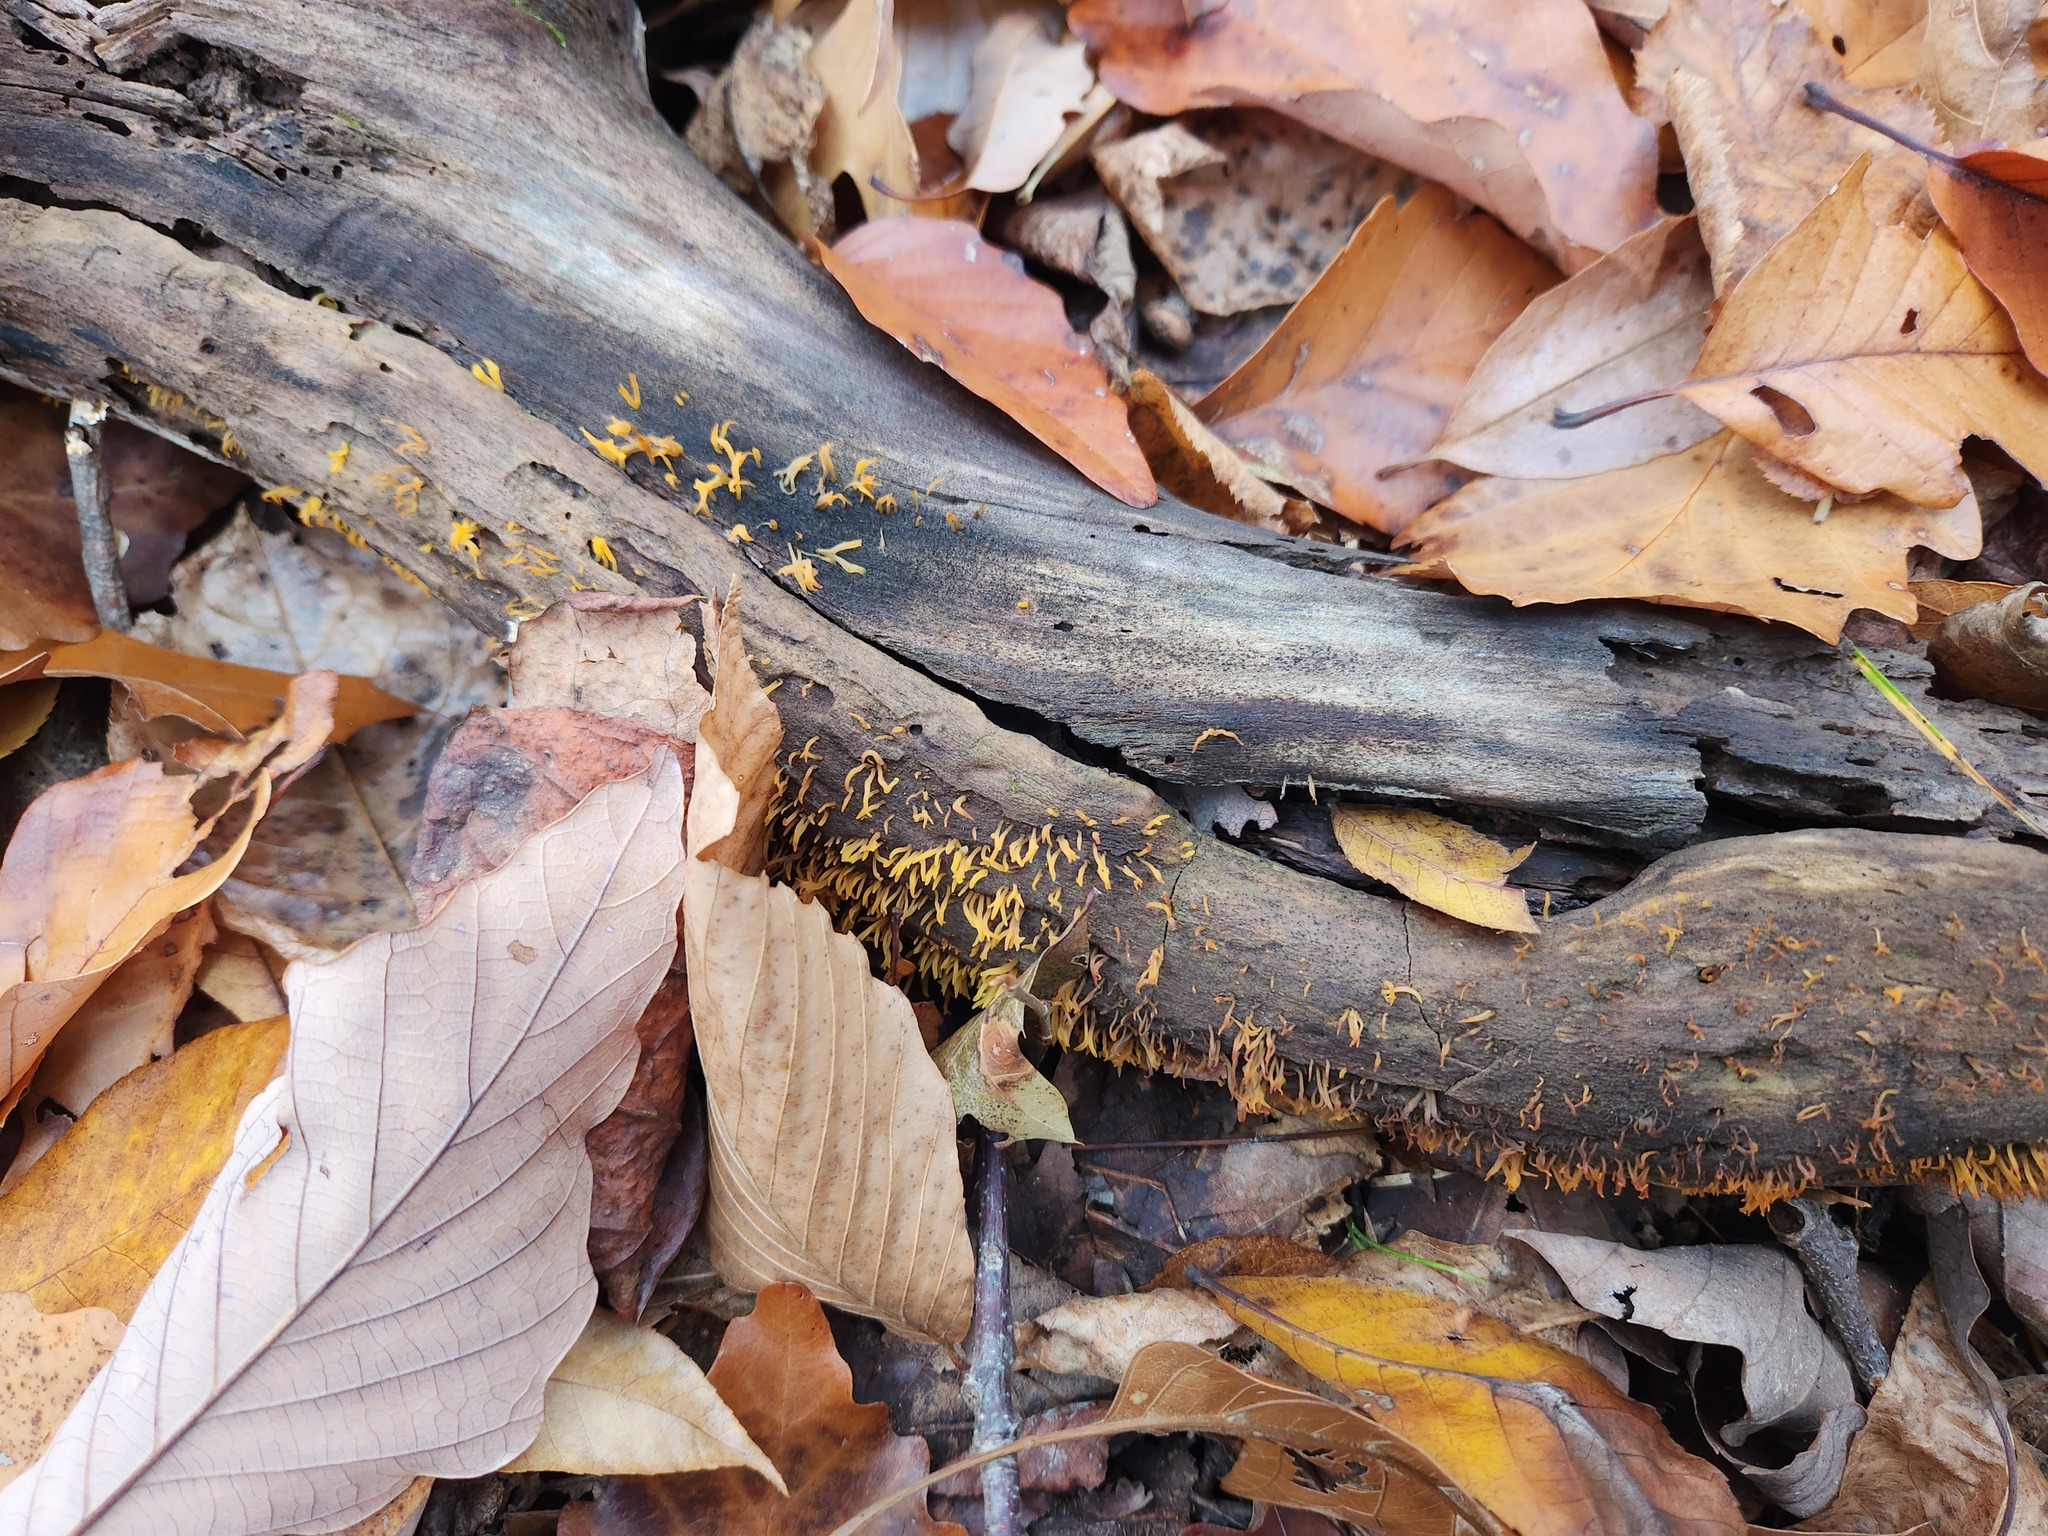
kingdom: Fungi
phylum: Basidiomycota
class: Dacrymycetes
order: Dacrymycetales
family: Dacrymycetaceae
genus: Calocera
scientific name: Calocera cornea
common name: Small stagshorn
